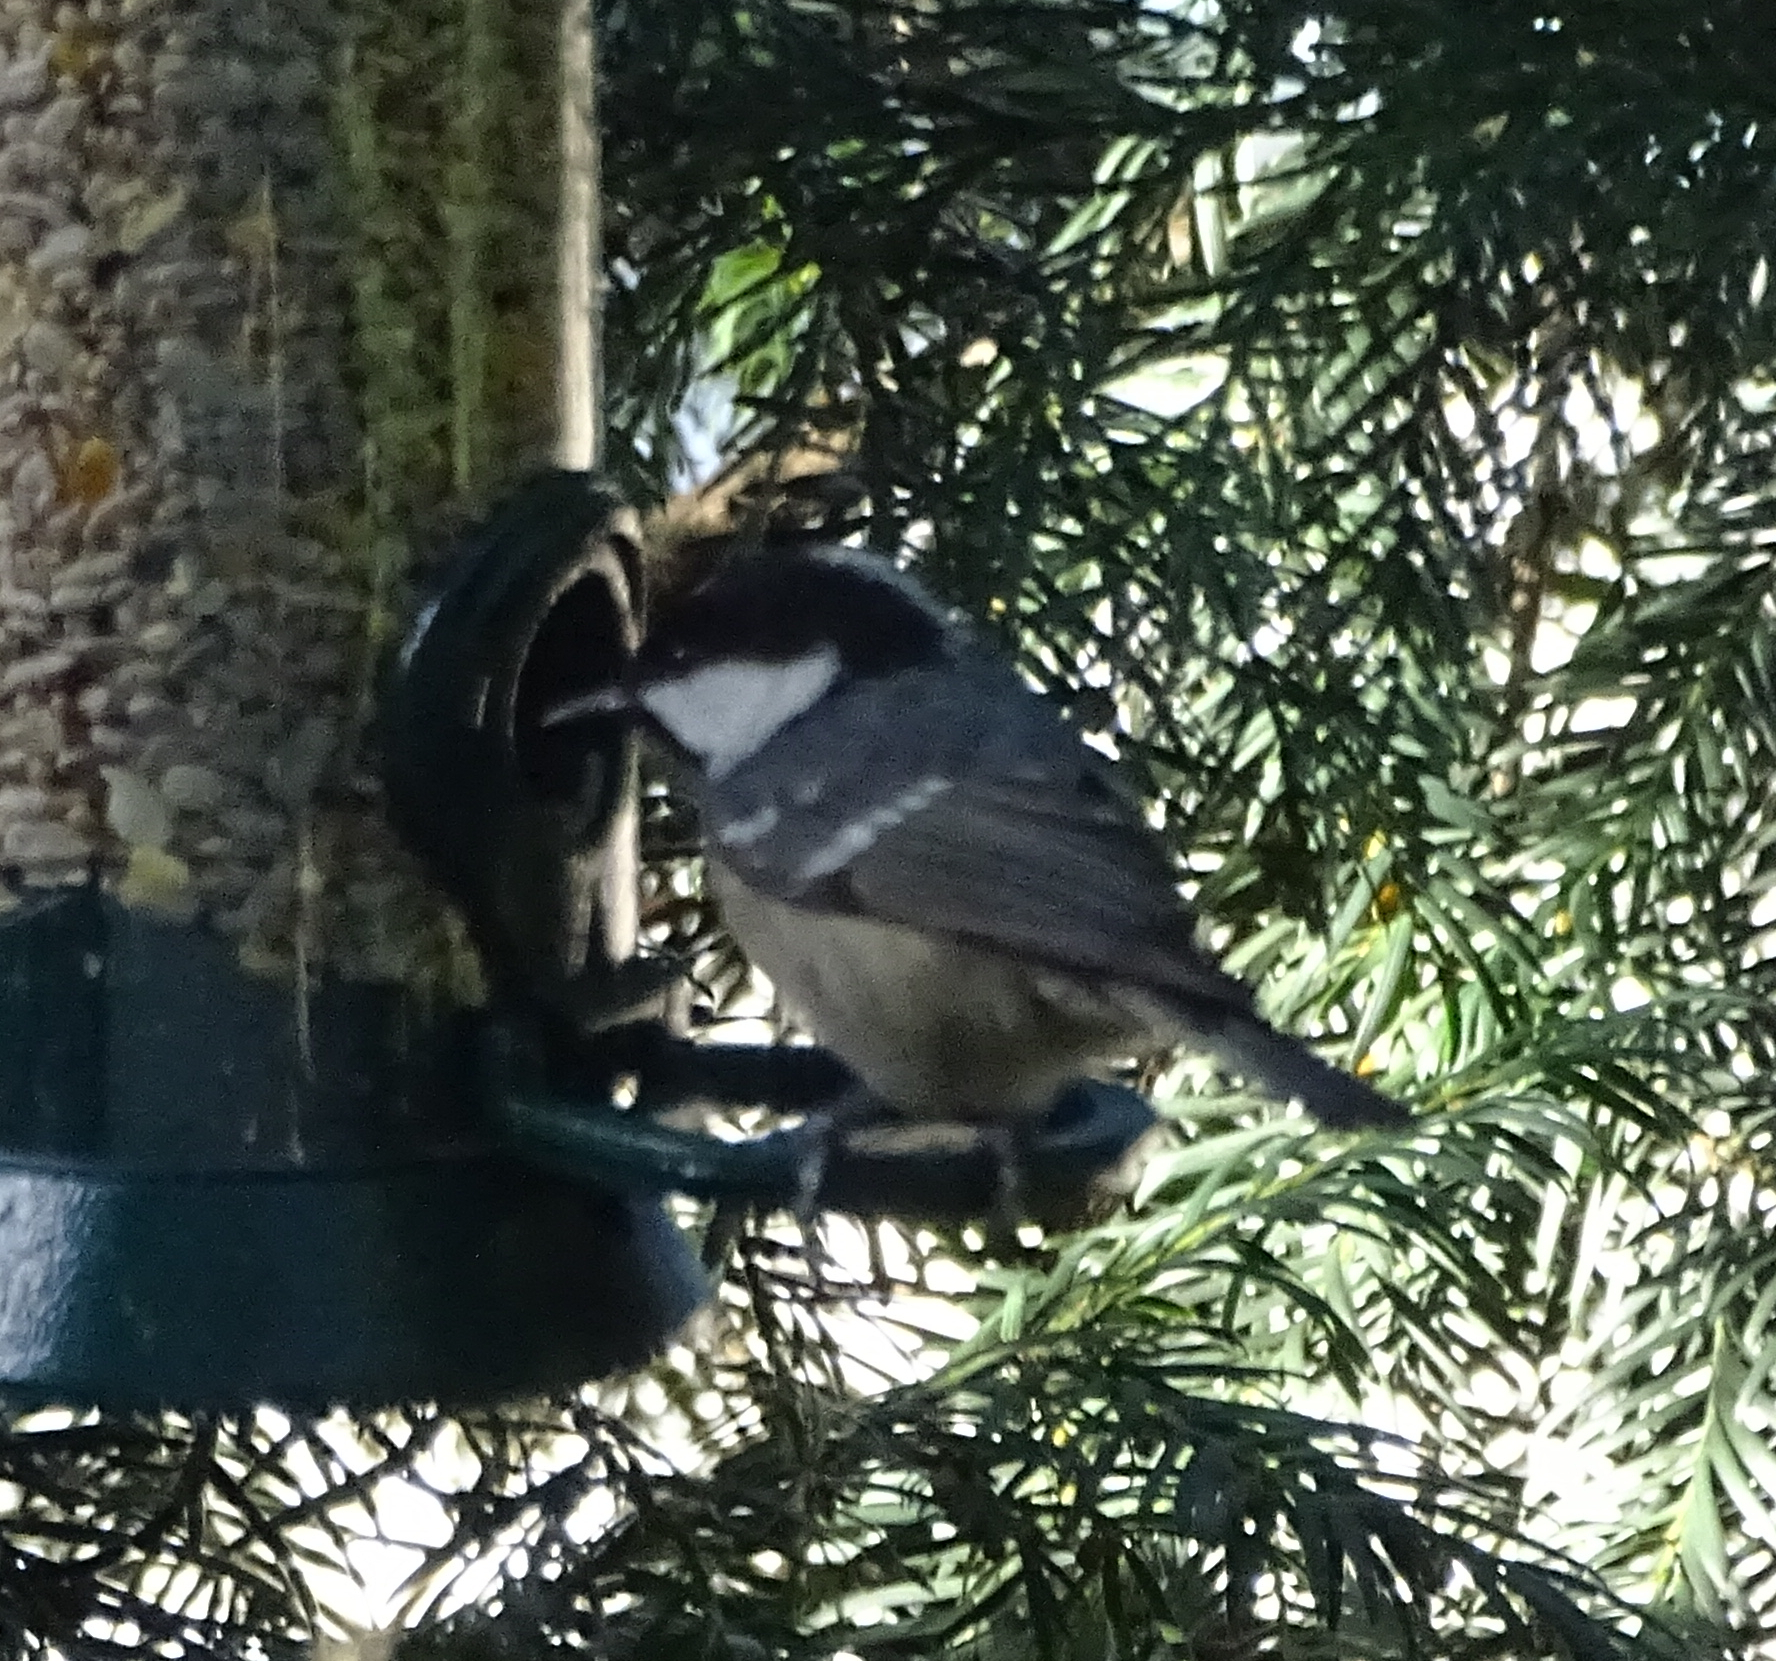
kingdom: Animalia
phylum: Chordata
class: Aves
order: Passeriformes
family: Paridae
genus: Periparus
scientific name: Periparus ater
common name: Coal tit
